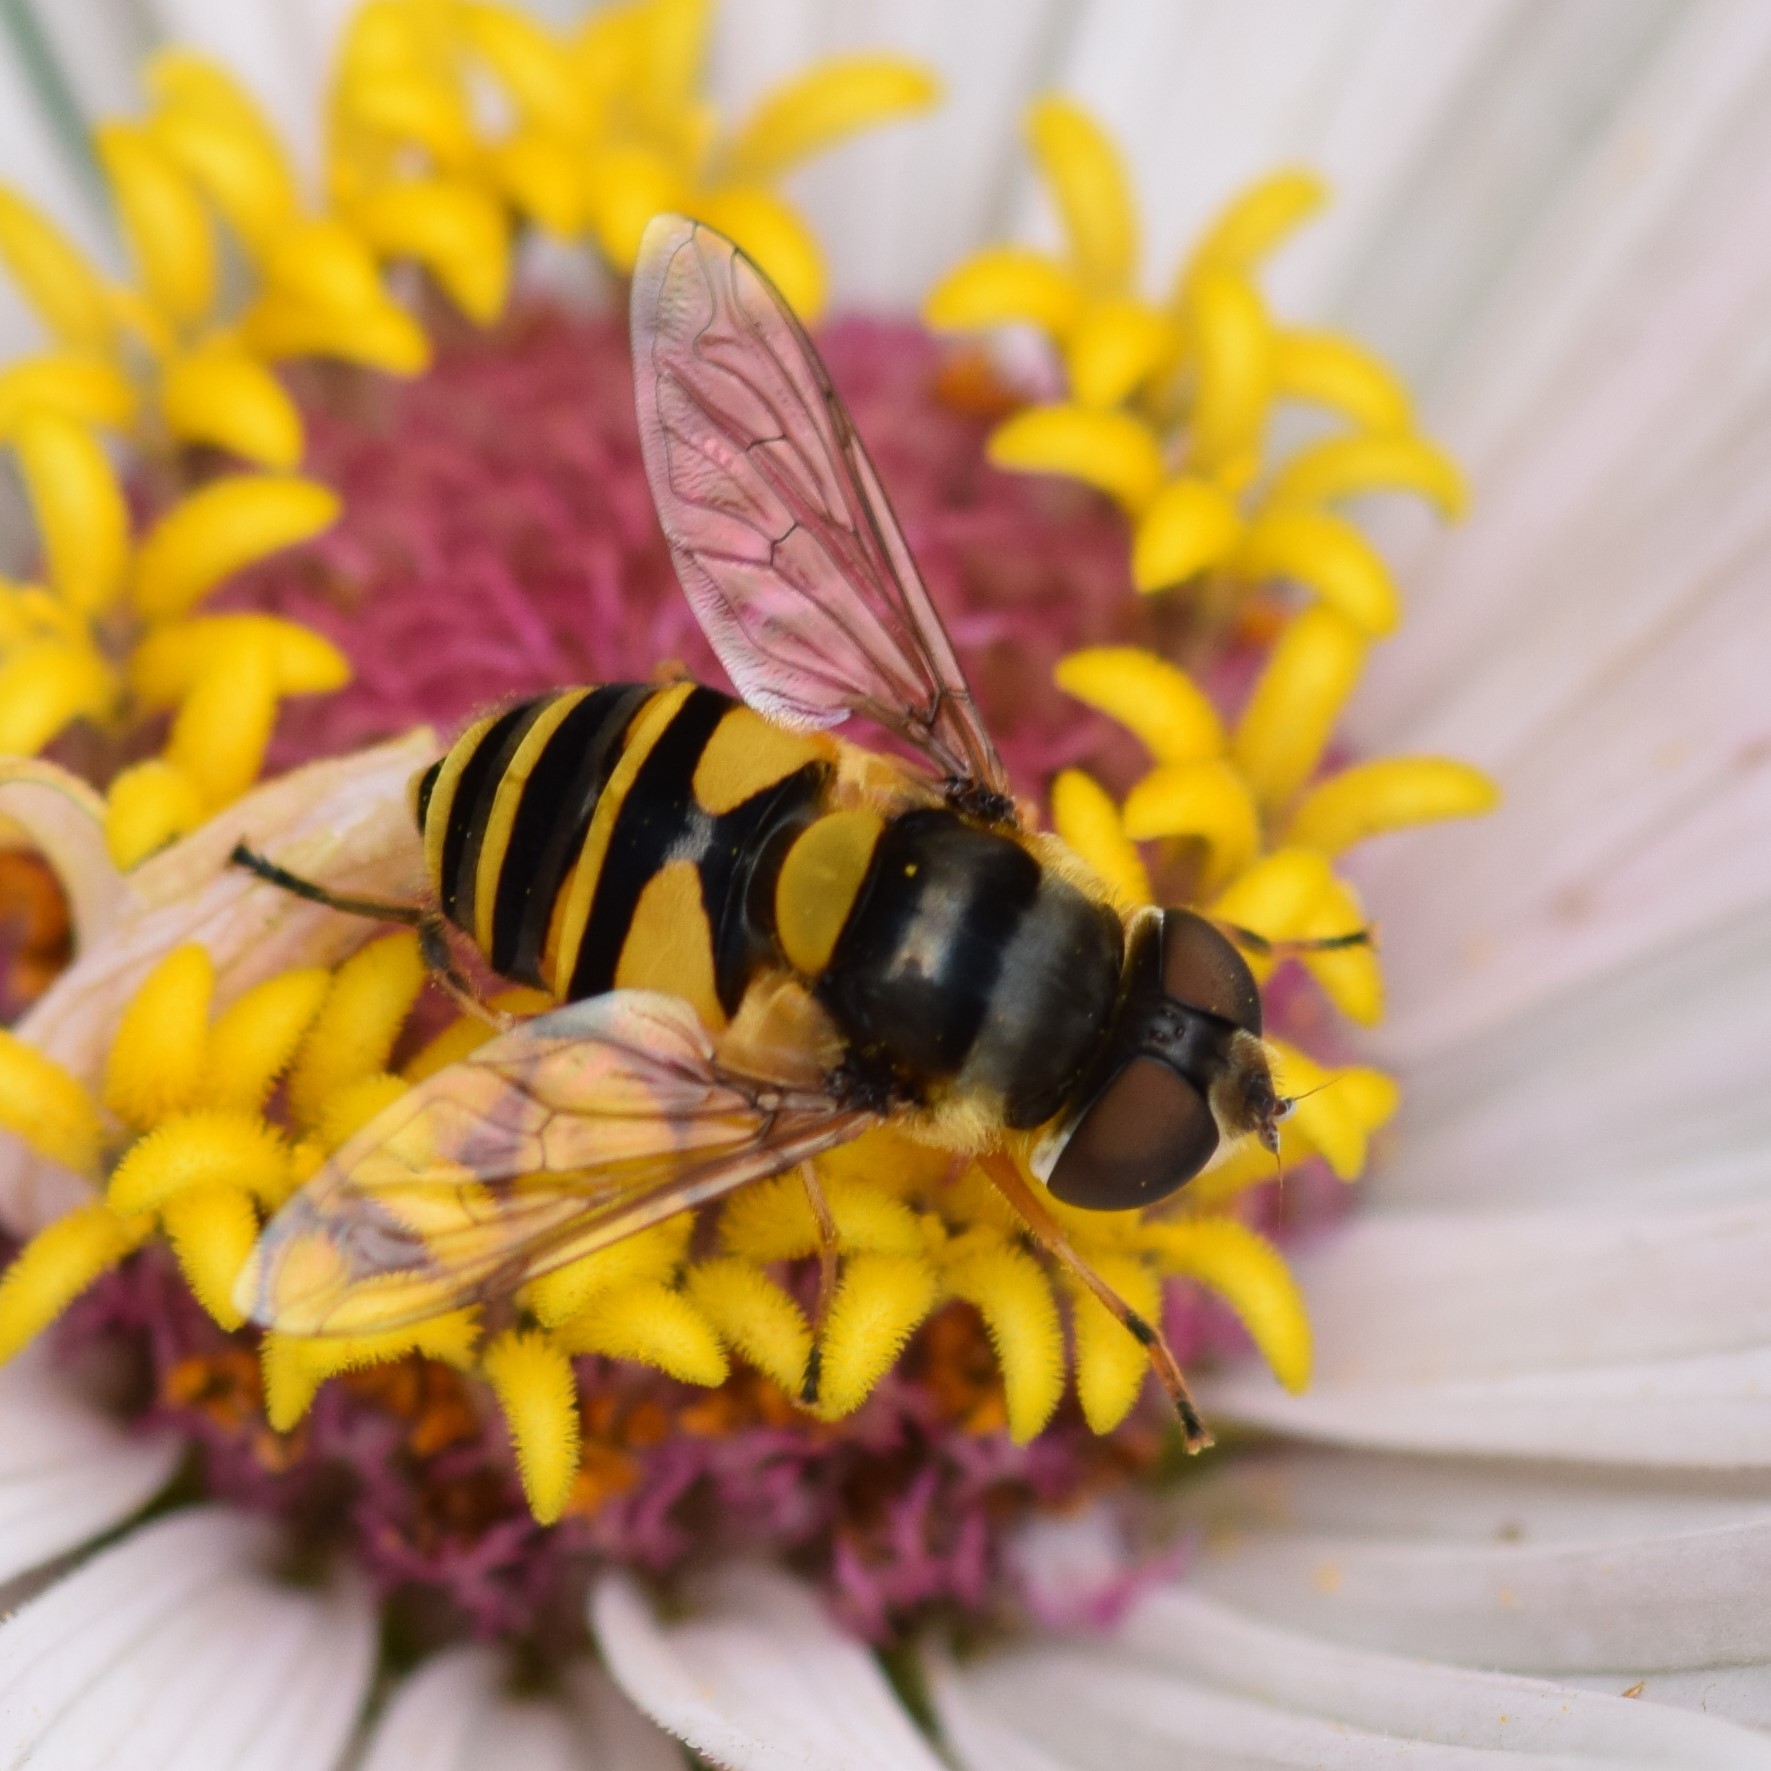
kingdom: Animalia
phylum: Arthropoda
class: Insecta
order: Diptera
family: Syrphidae
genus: Eristalis
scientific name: Eristalis transversa
